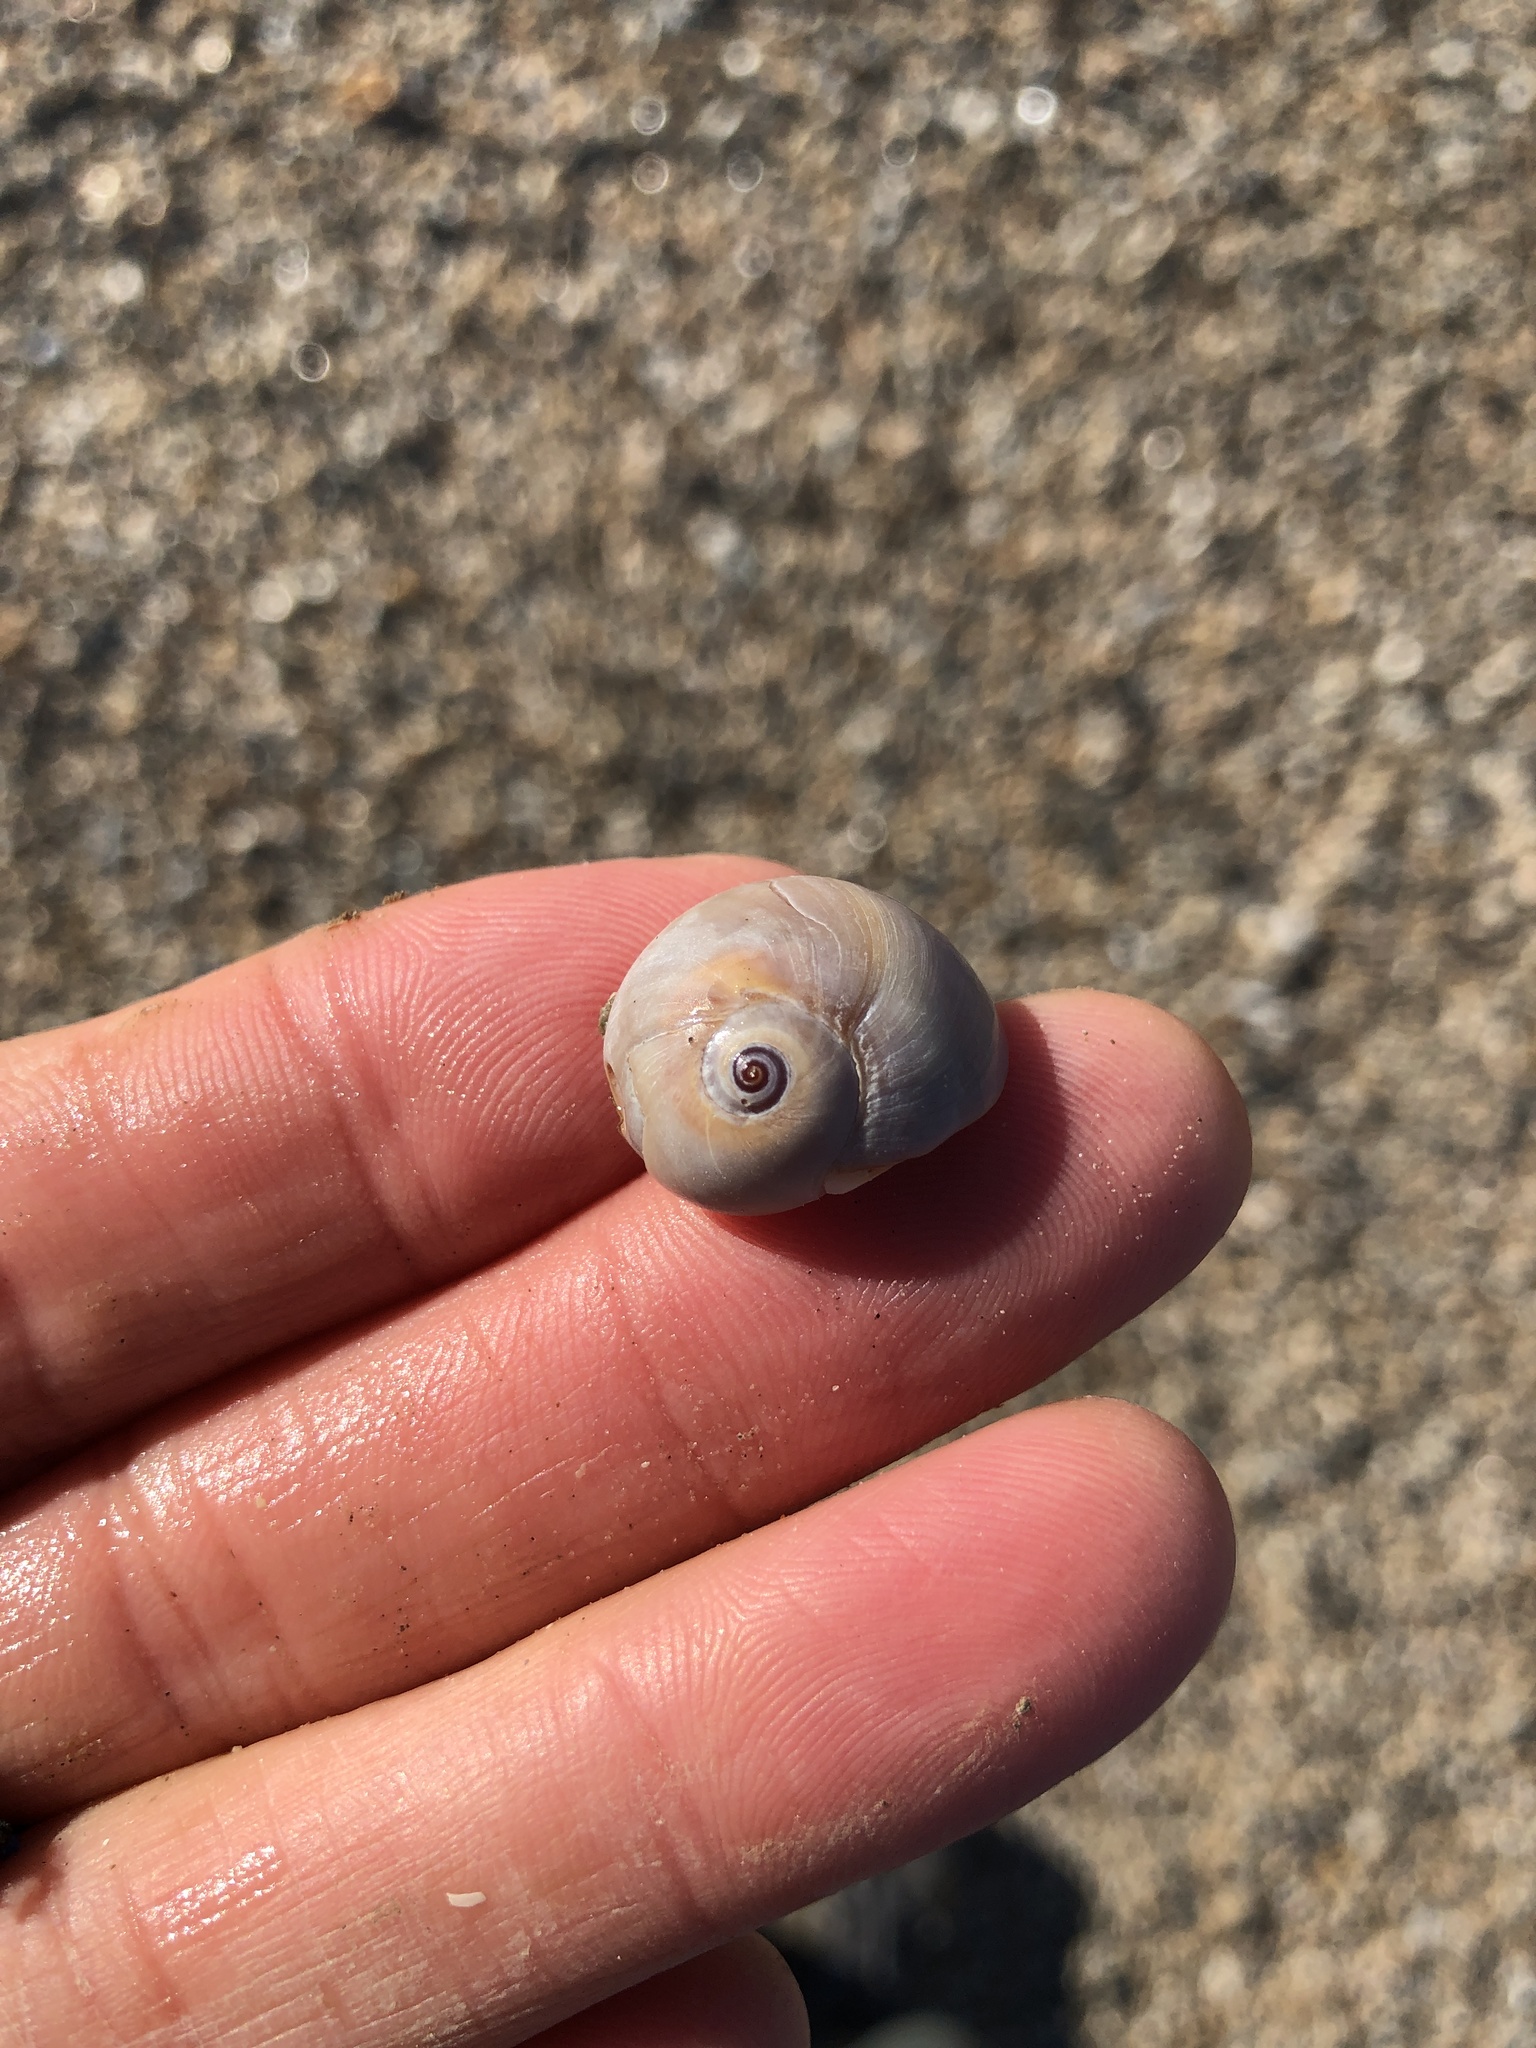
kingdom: Animalia
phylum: Mollusca
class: Gastropoda
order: Littorinimorpha
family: Naticidae
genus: Neverita
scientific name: Neverita delessertiana
